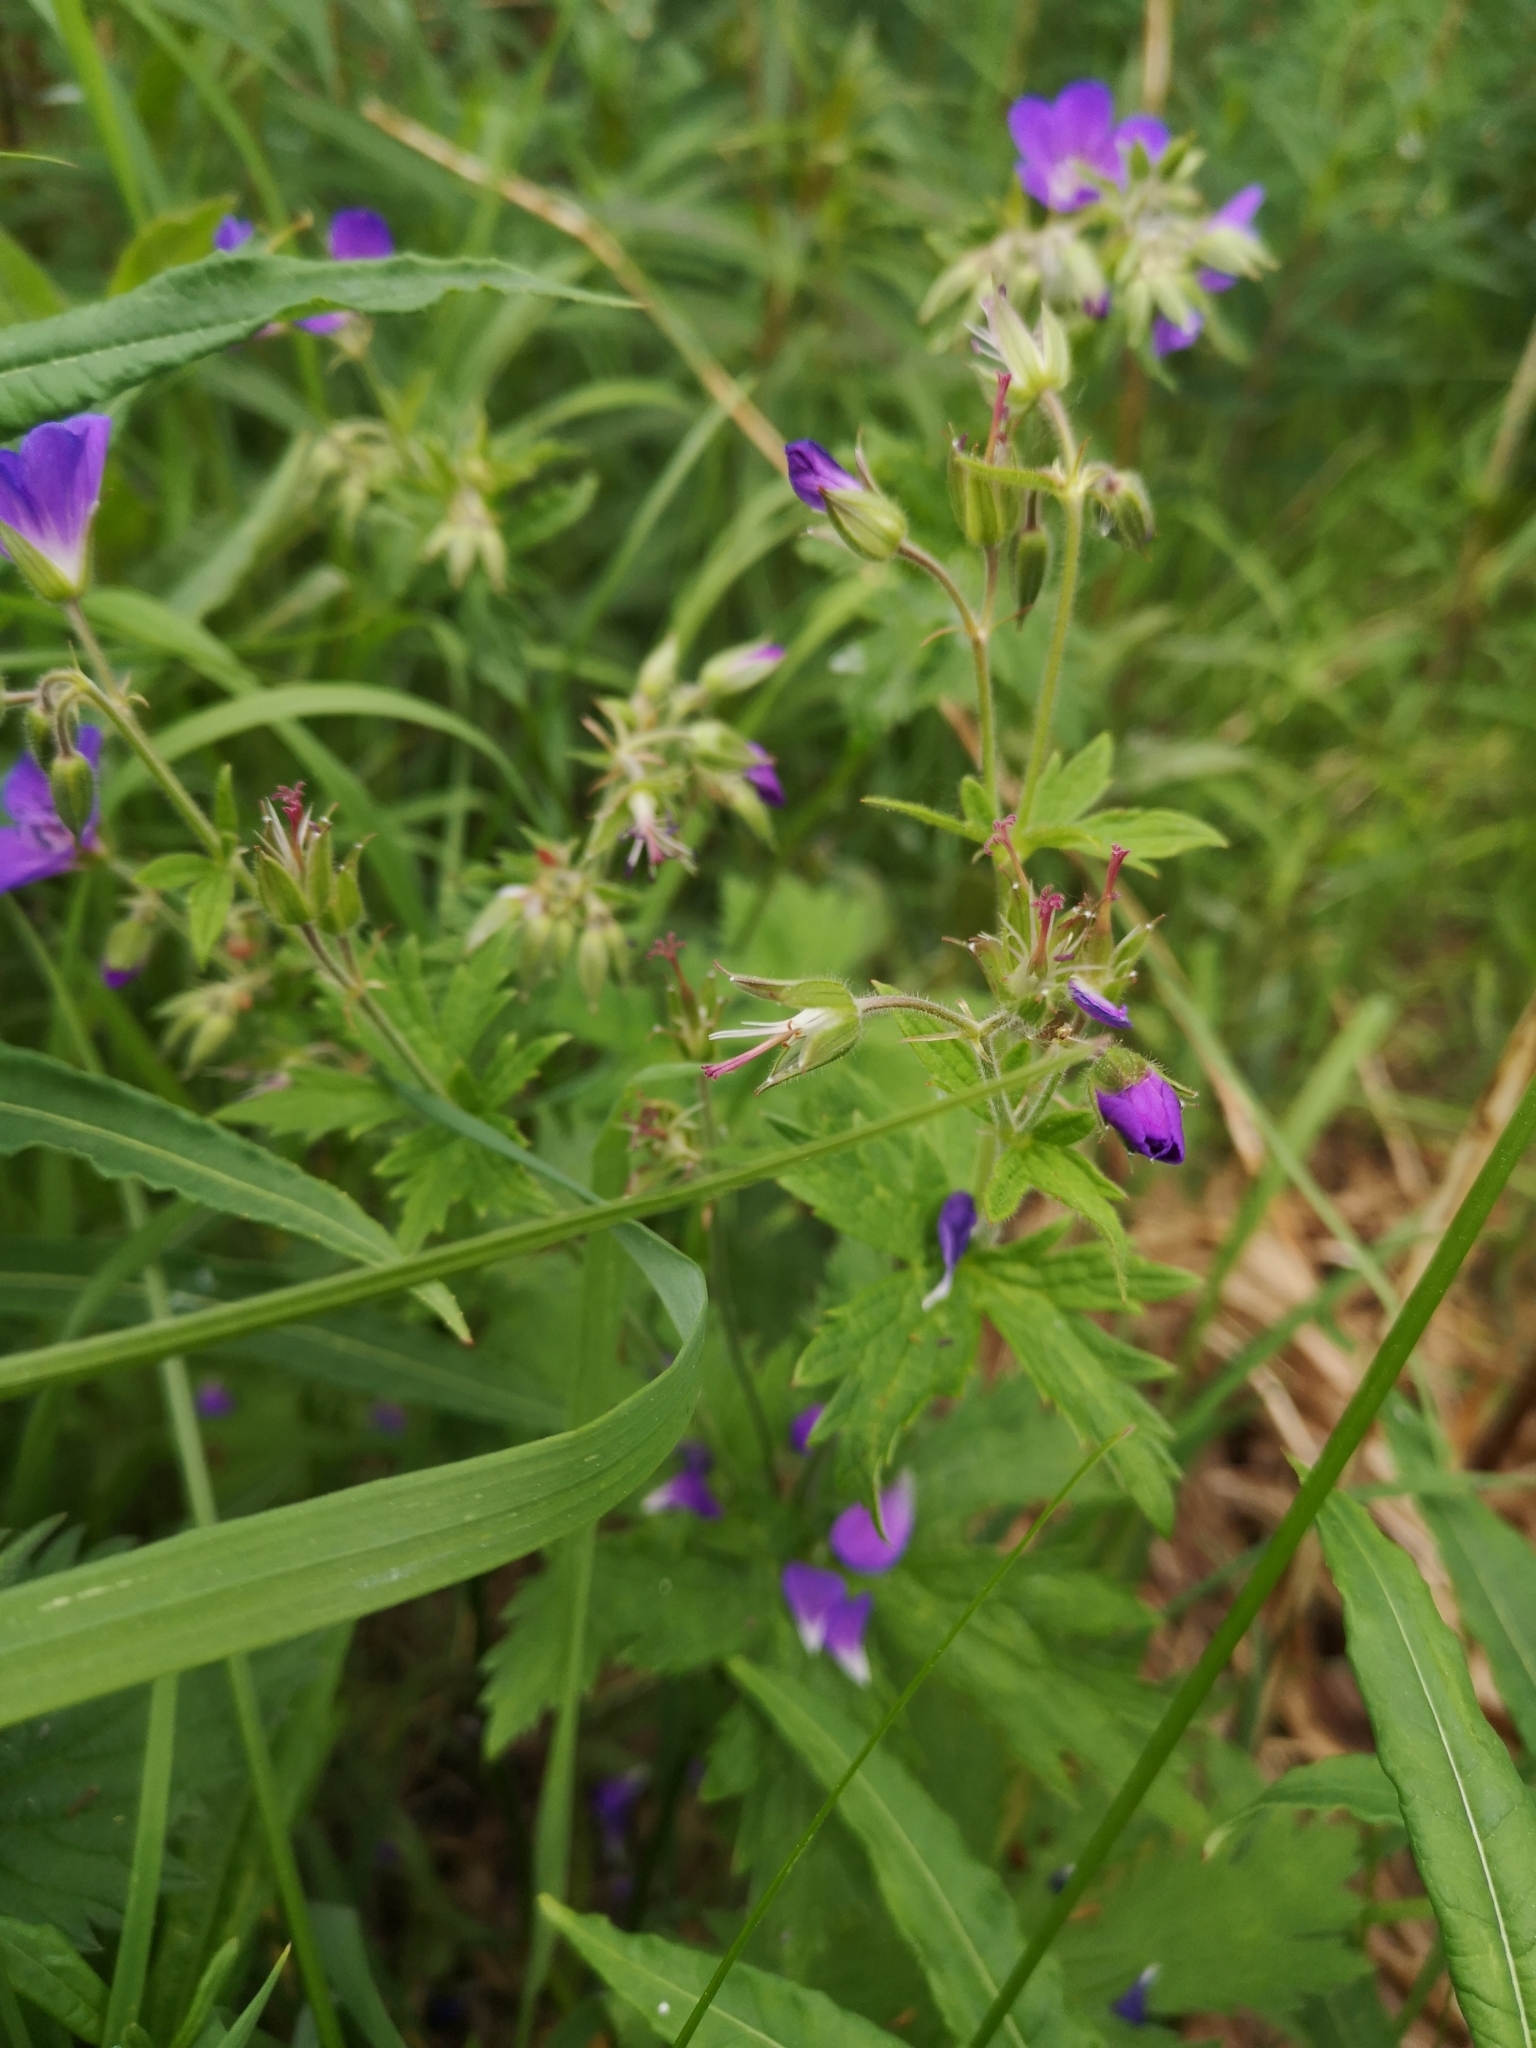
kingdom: Plantae
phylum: Tracheophyta
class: Magnoliopsida
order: Geraniales
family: Geraniaceae
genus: Geranium
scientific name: Geranium sylvaticum
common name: Wood crane's-bill
